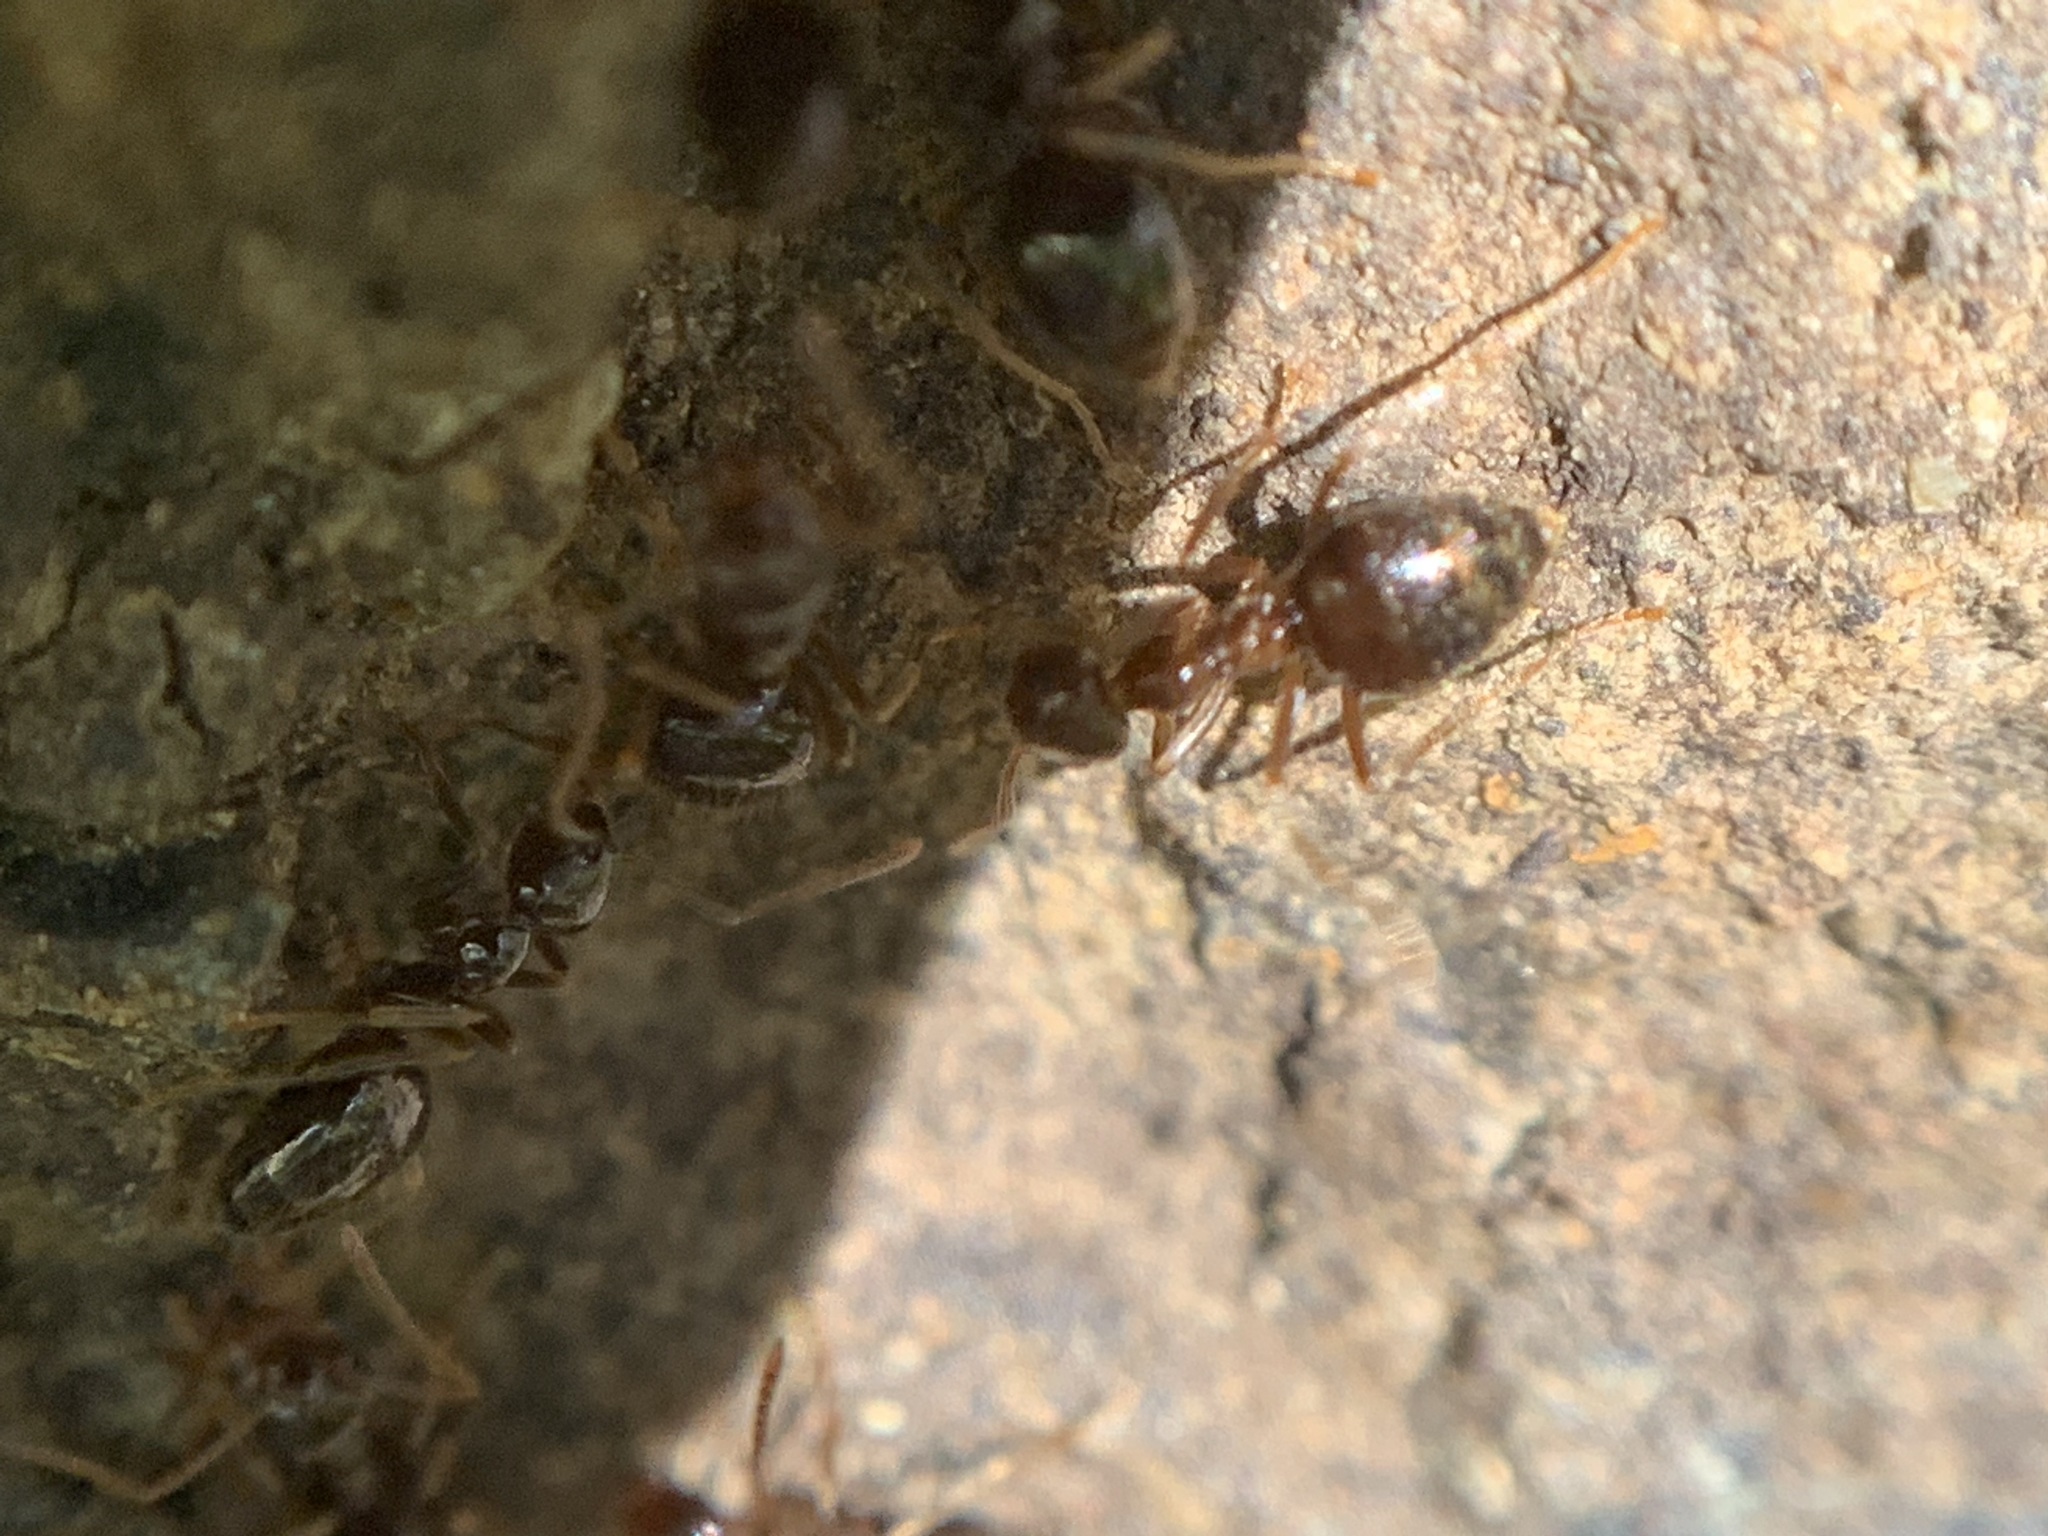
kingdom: Animalia
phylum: Arthropoda
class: Insecta
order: Hymenoptera
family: Formicidae
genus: Prenolepis
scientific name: Prenolepis imparis
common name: Small honey ant
